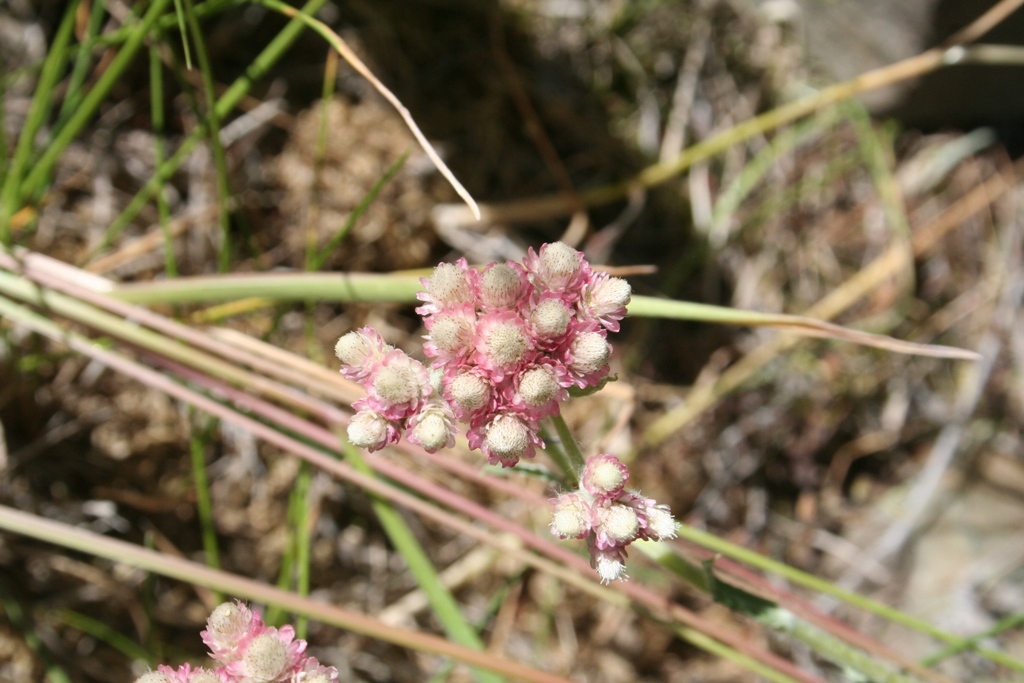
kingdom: Plantae
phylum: Tracheophyta
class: Magnoliopsida
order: Asterales
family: Asteraceae
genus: Antennaria
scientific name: Antennaria rosea
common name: Rosy pussytoes
